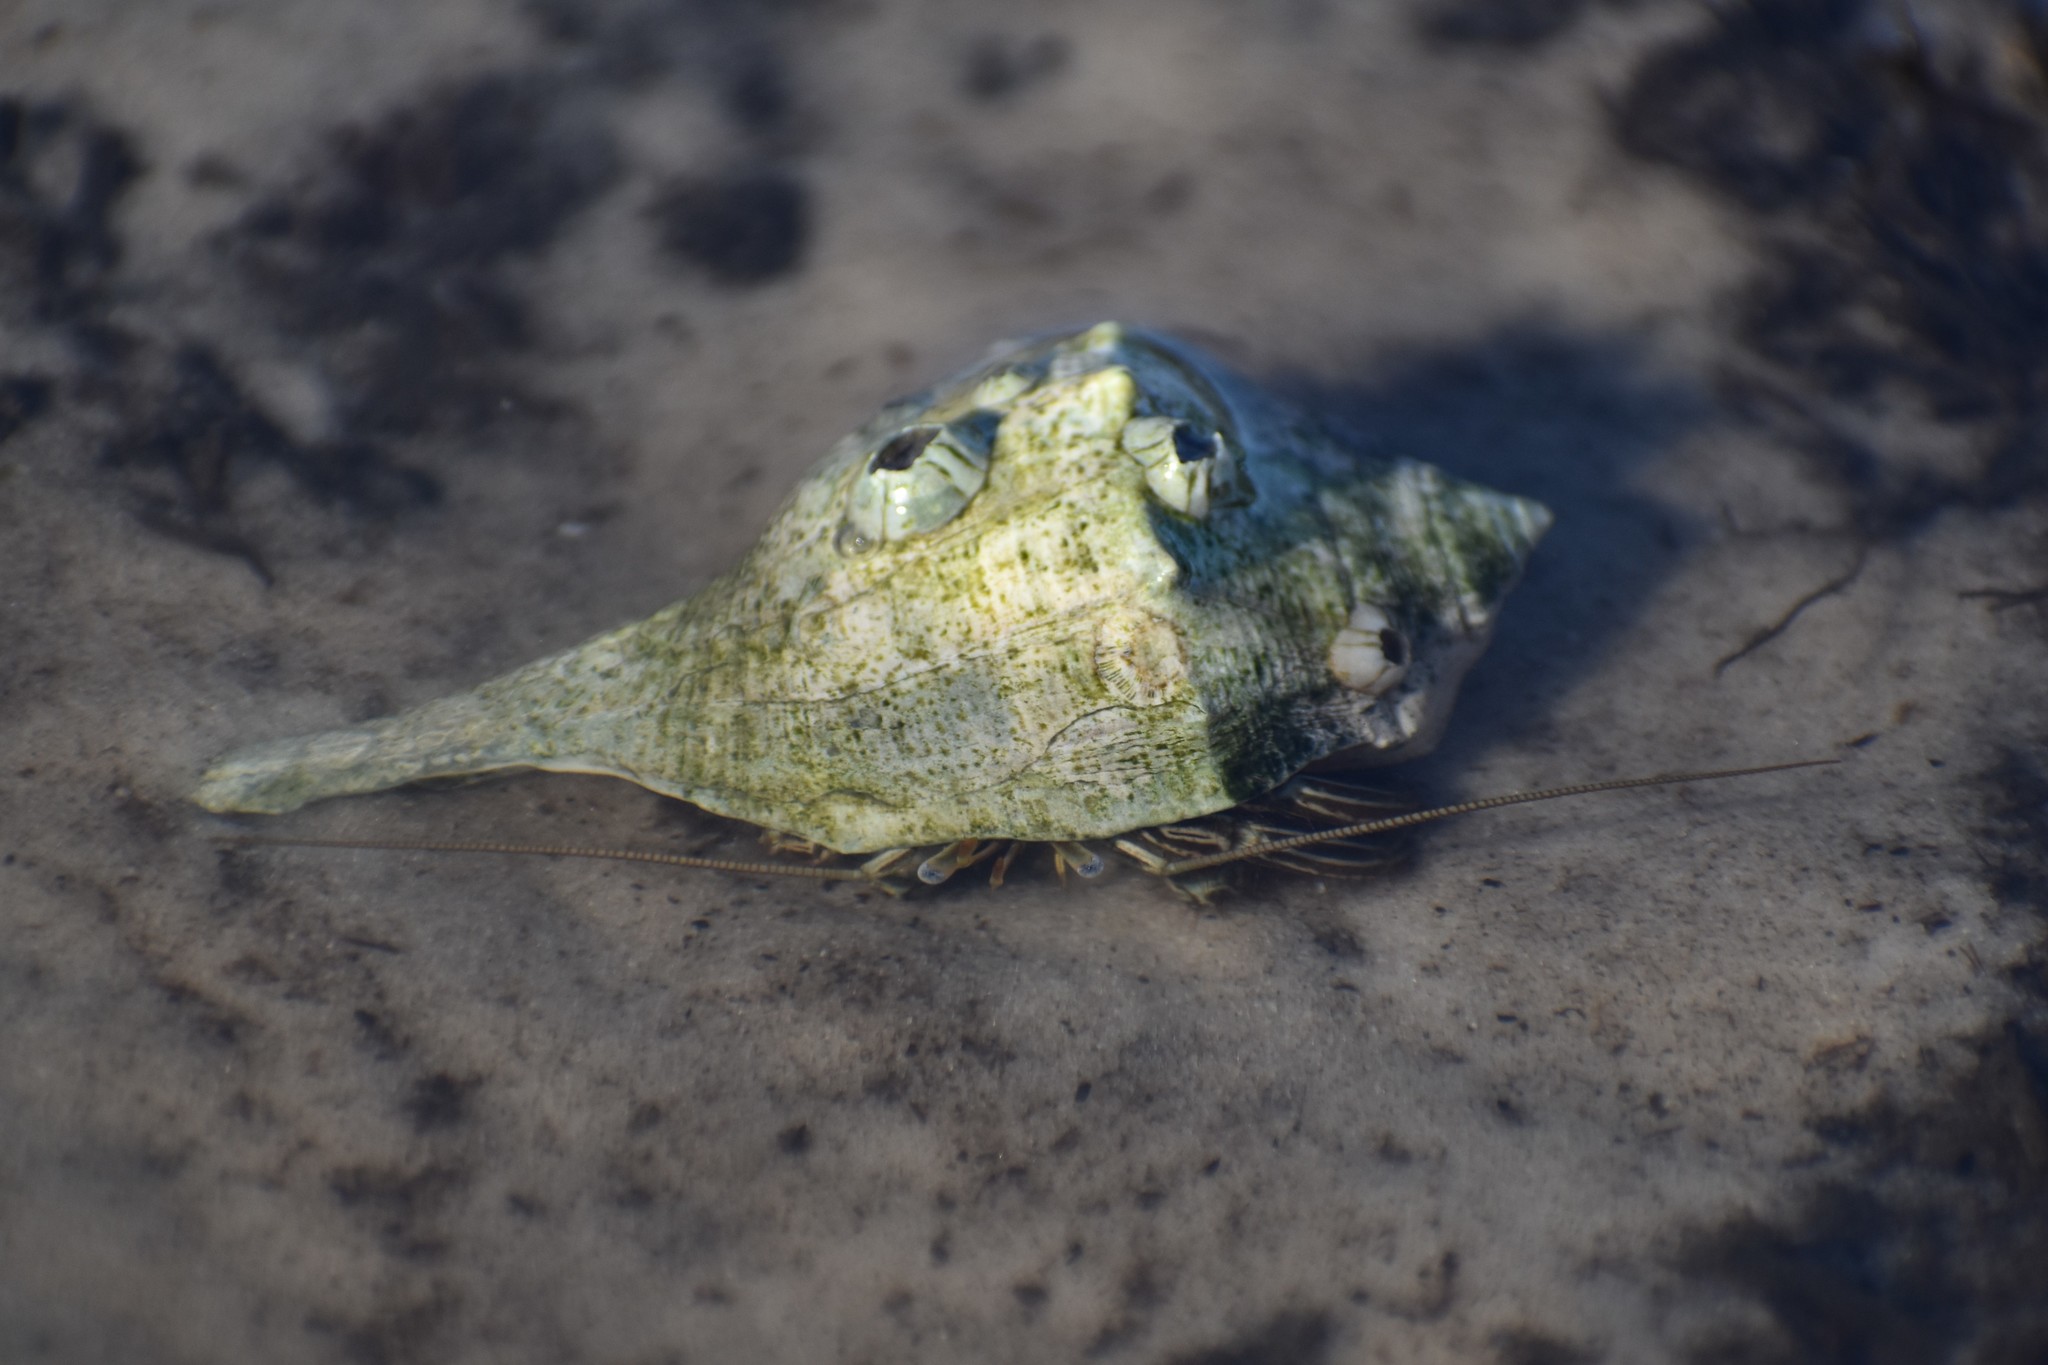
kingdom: Animalia
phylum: Arthropoda
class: Malacostraca
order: Decapoda
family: Diogenidae
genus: Clibanarius
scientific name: Clibanarius vittatus
